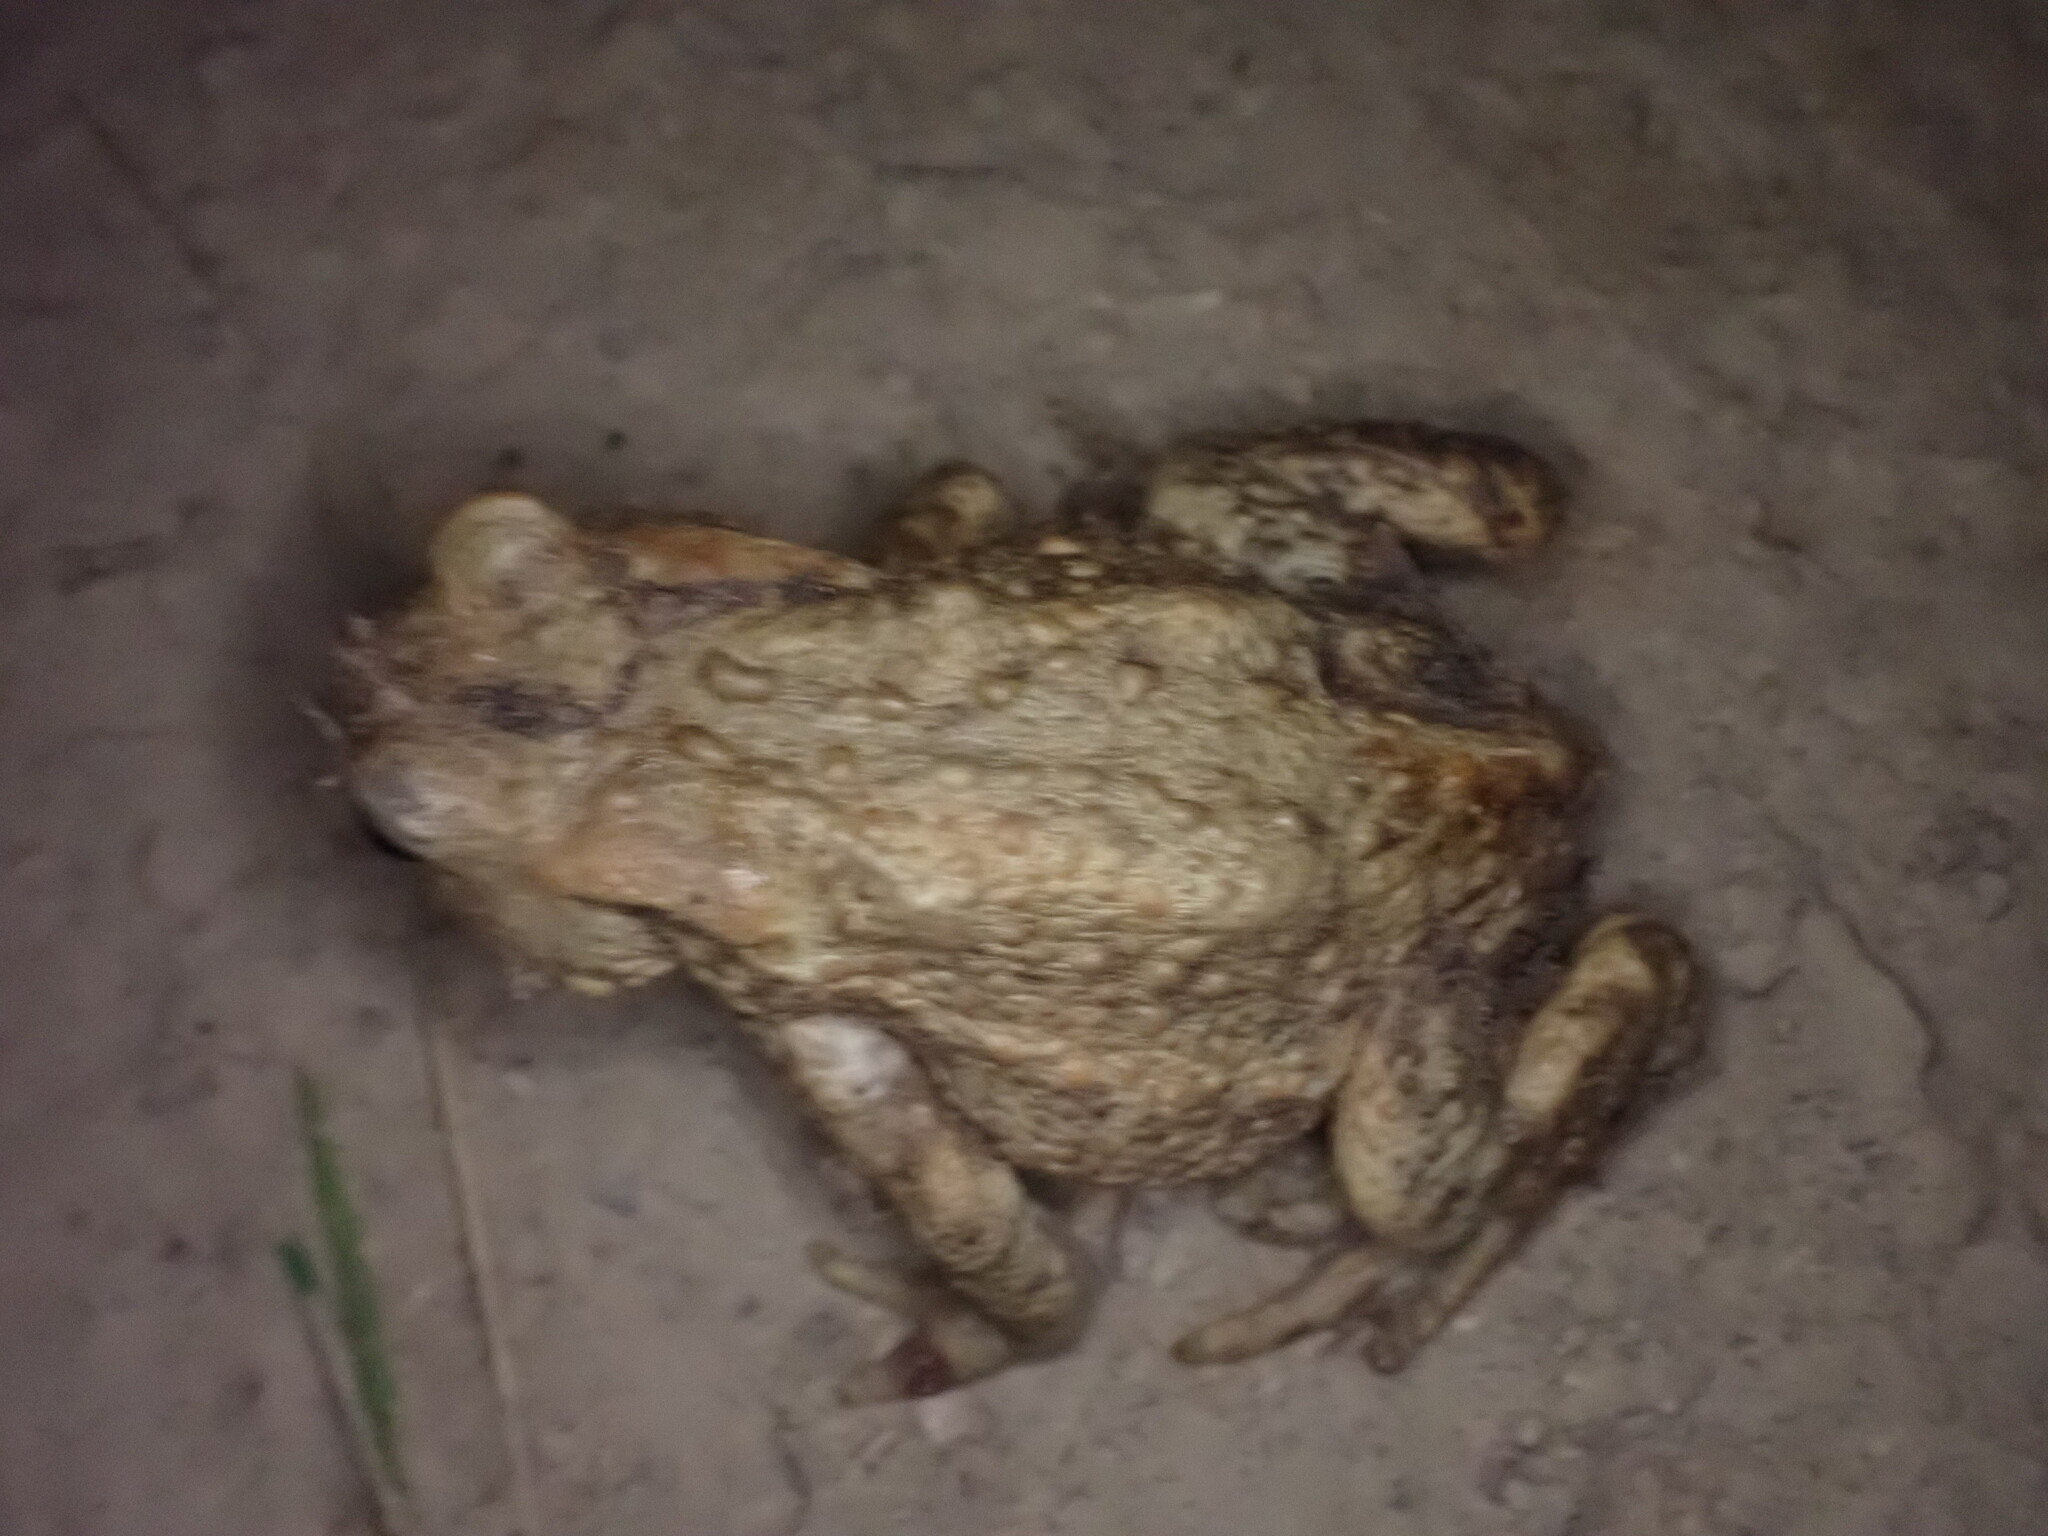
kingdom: Animalia
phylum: Chordata
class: Amphibia
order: Anura
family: Bufonidae
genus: Bufo
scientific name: Bufo bufo
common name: Common toad
